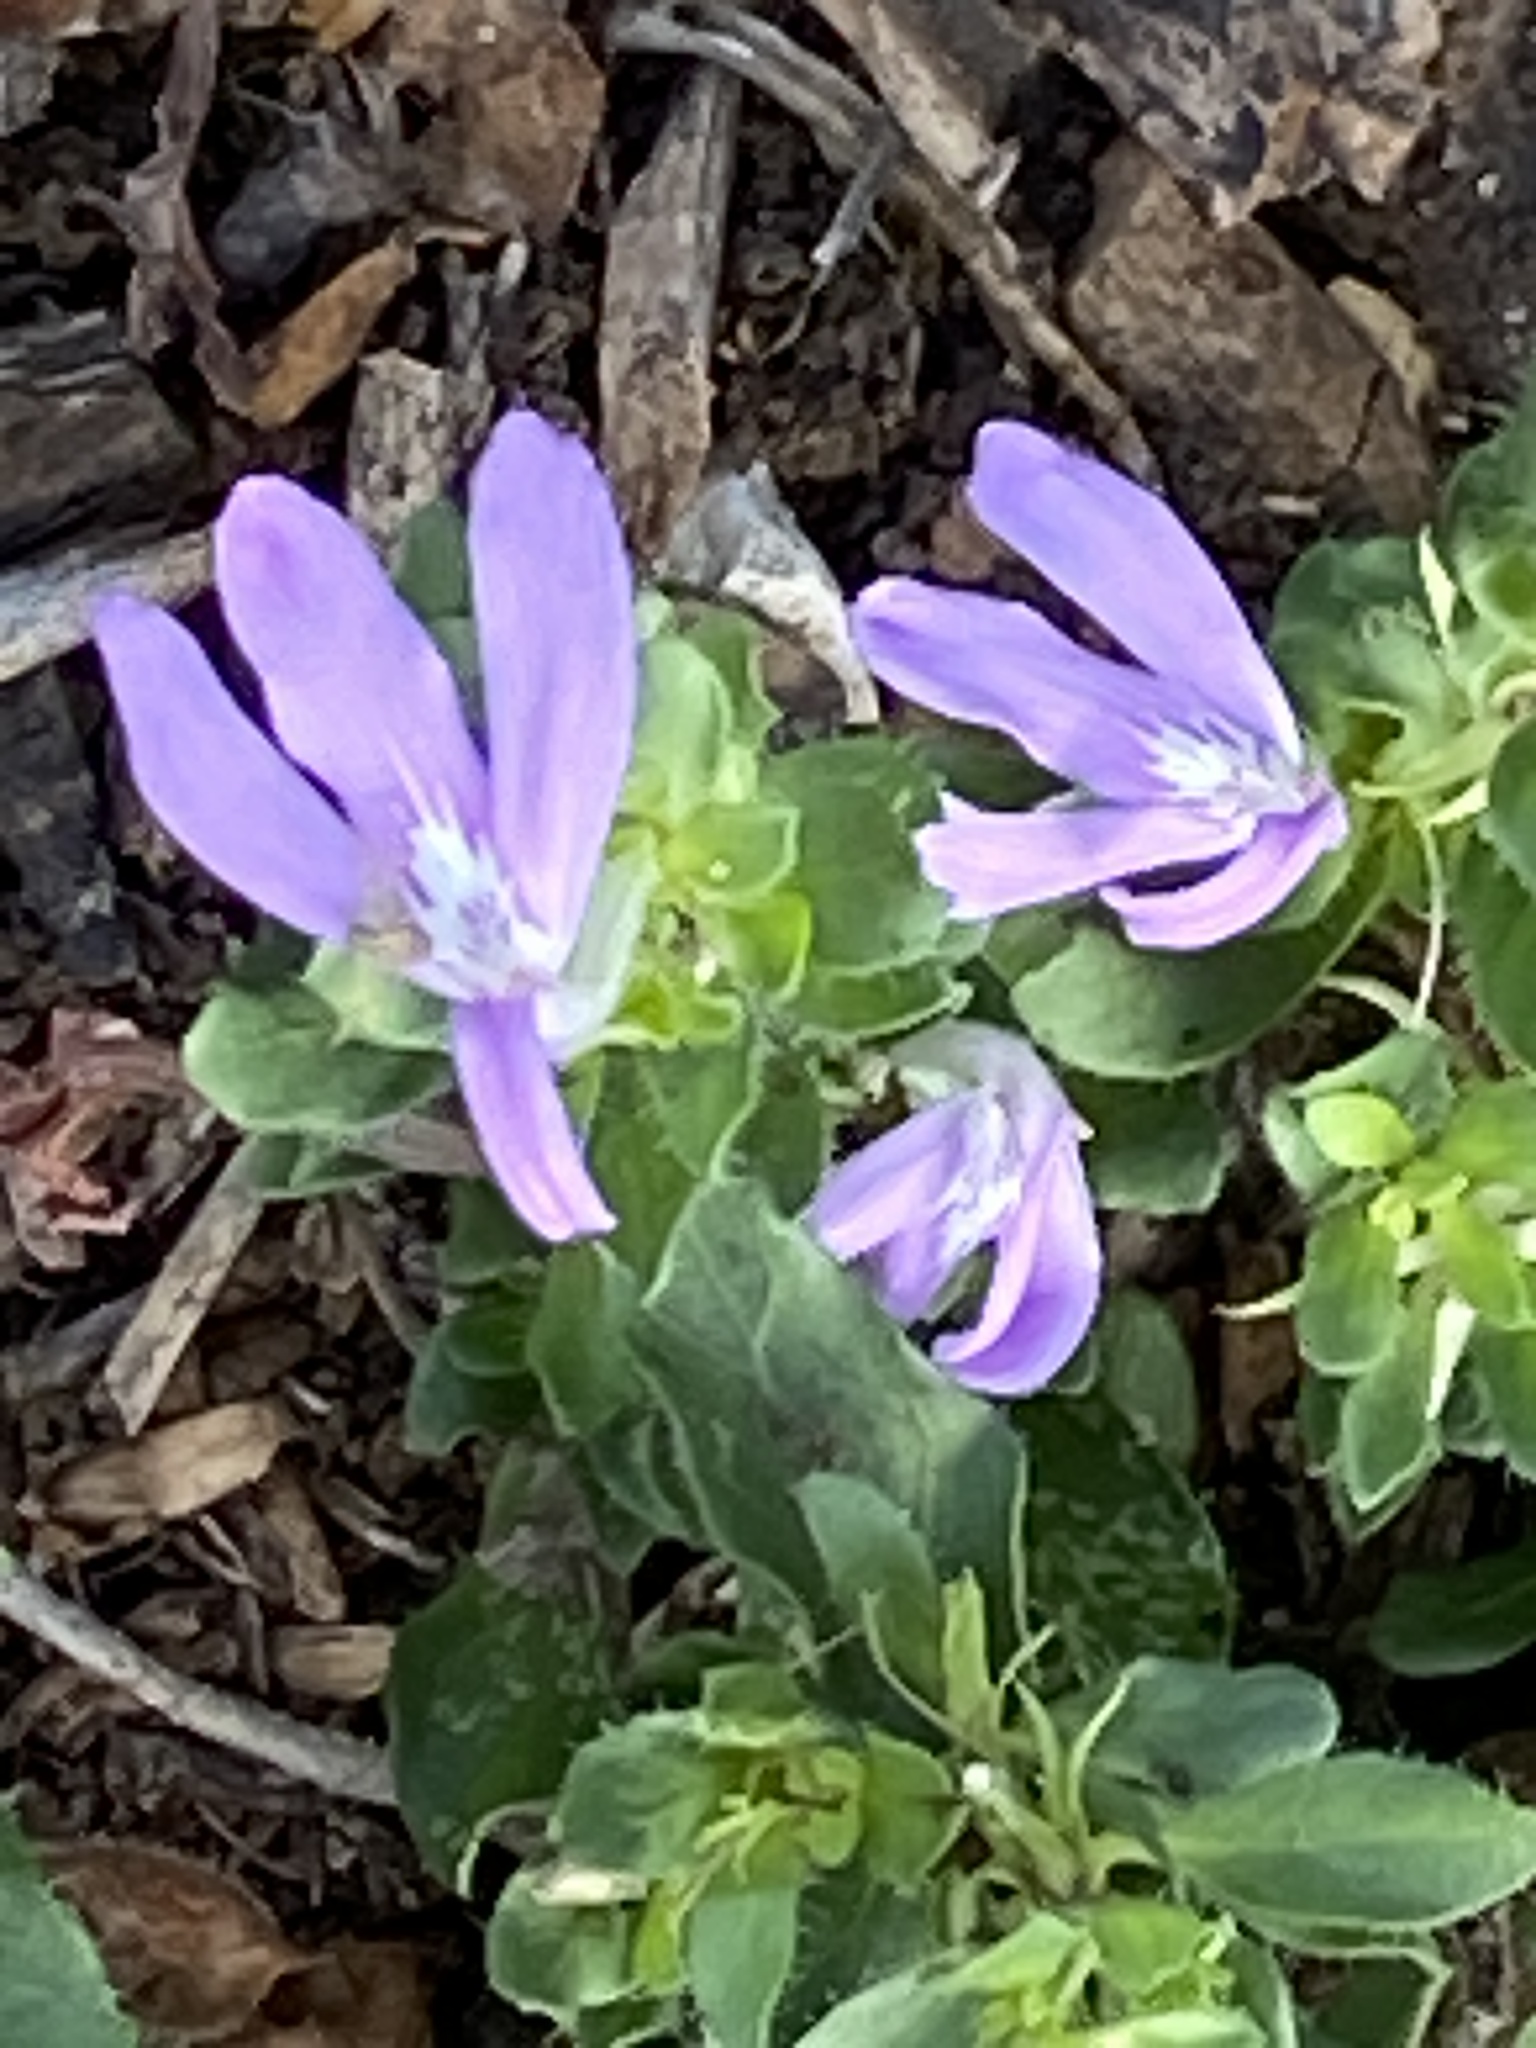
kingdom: Plantae
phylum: Tracheophyta
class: Magnoliopsida
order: Lamiales
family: Acanthaceae
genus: Justicia
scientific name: Justicia pilosella
